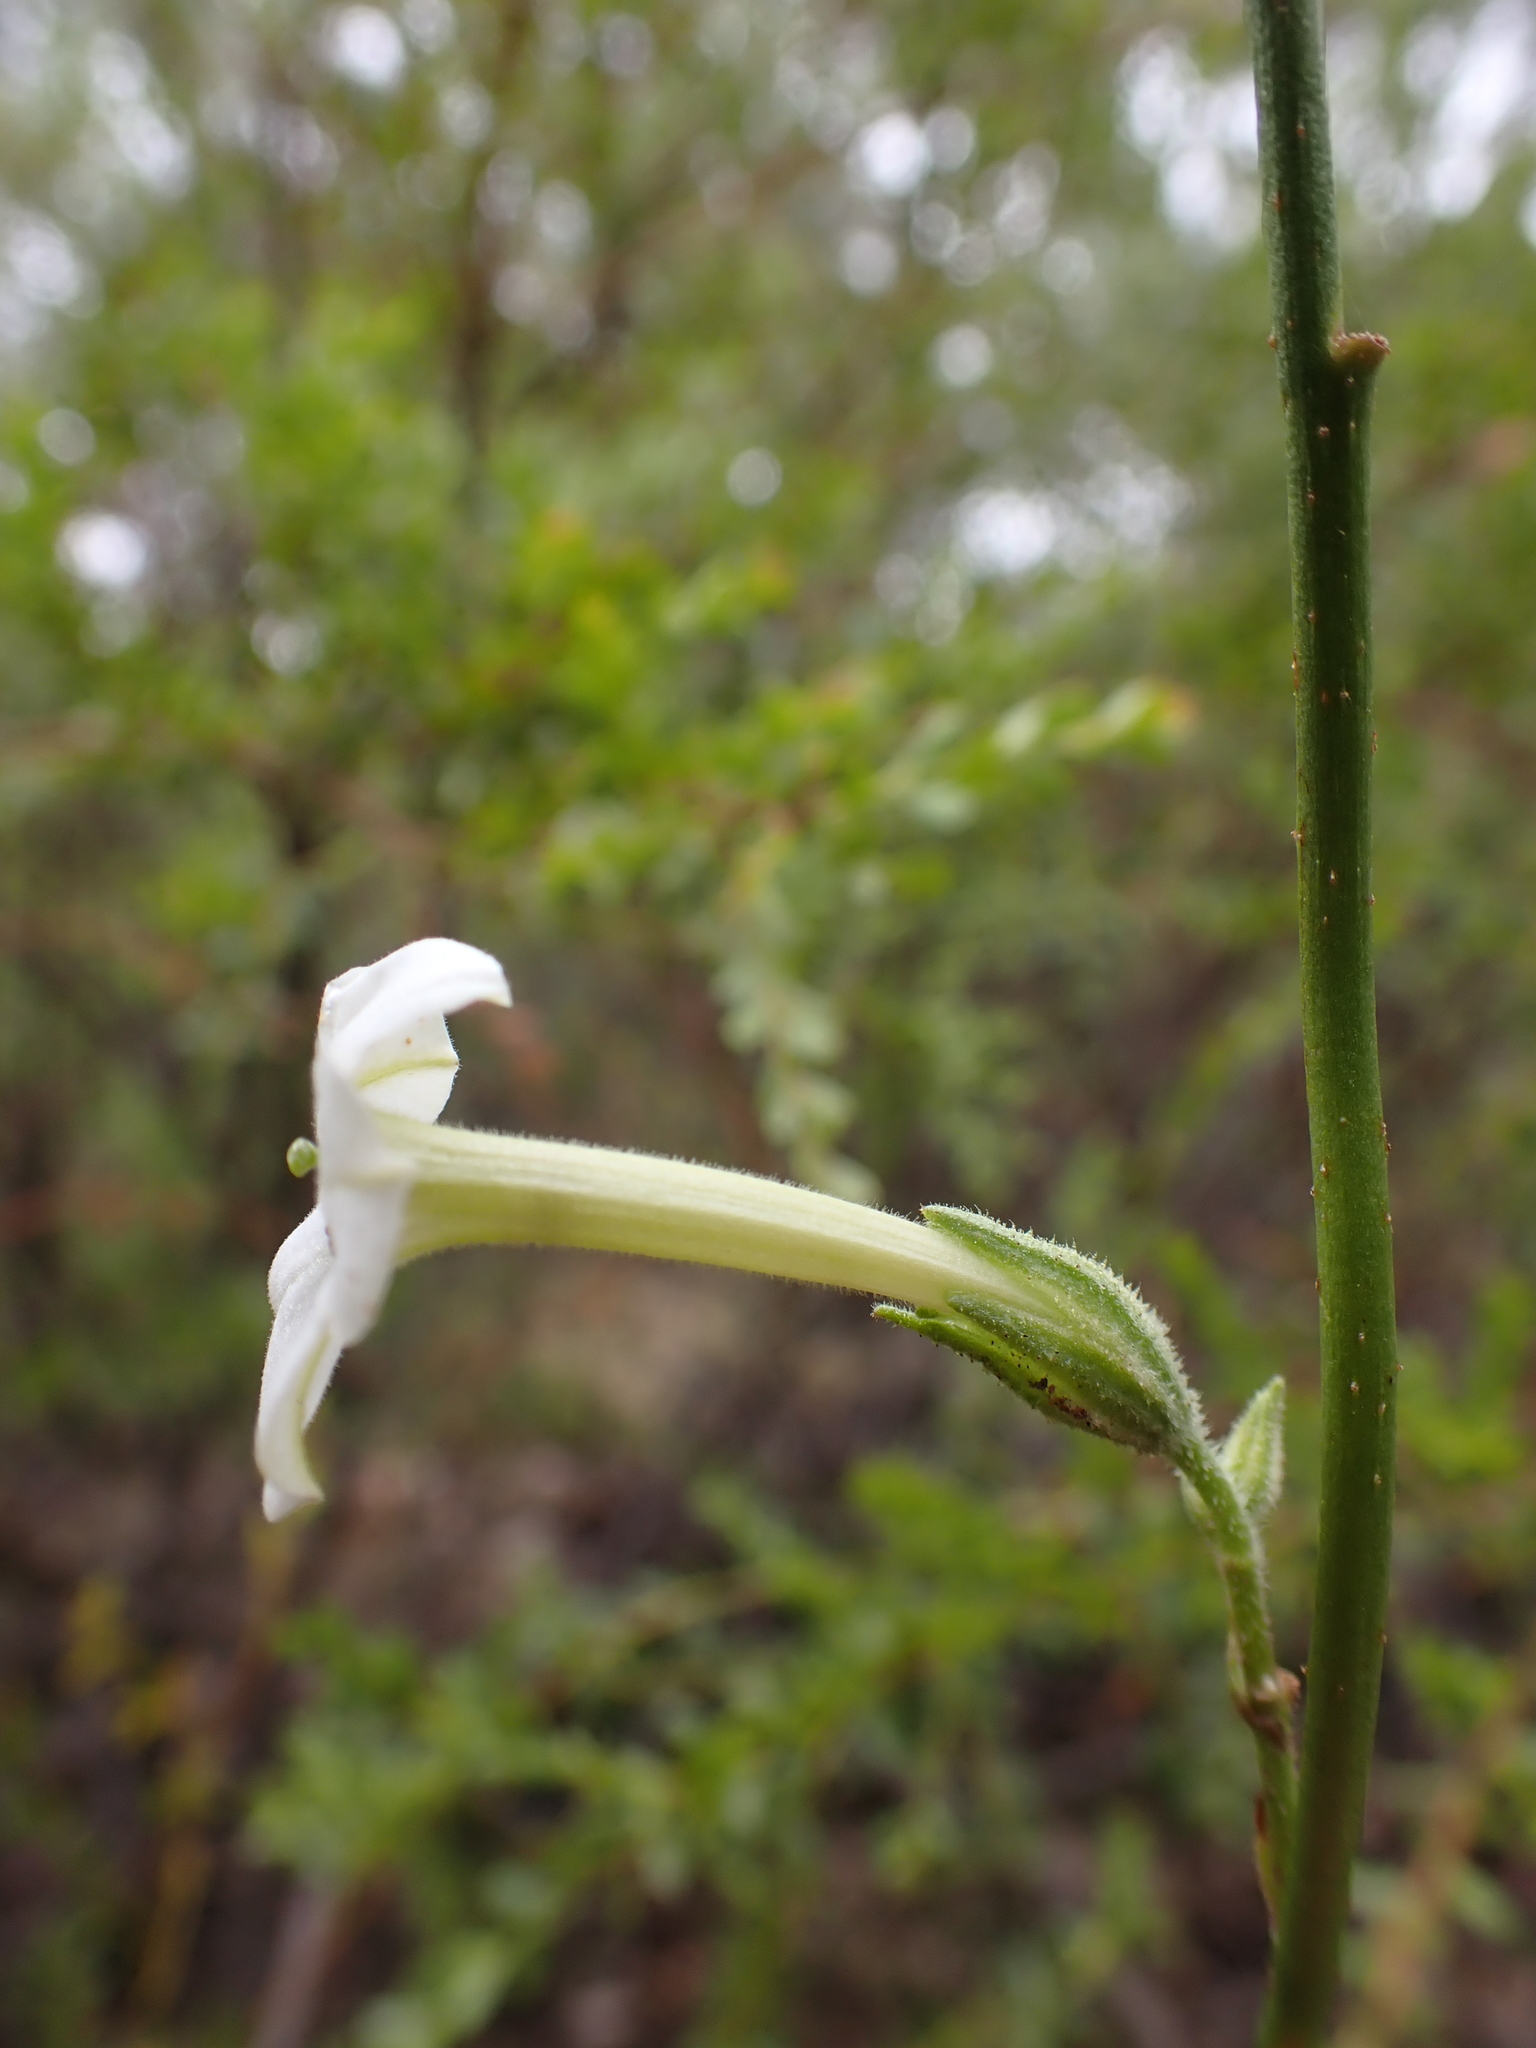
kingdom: Plantae
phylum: Tracheophyta
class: Magnoliopsida
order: Solanales
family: Solanaceae
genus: Nicotiana
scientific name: Nicotiana suaveolens
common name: Australian tobacco
